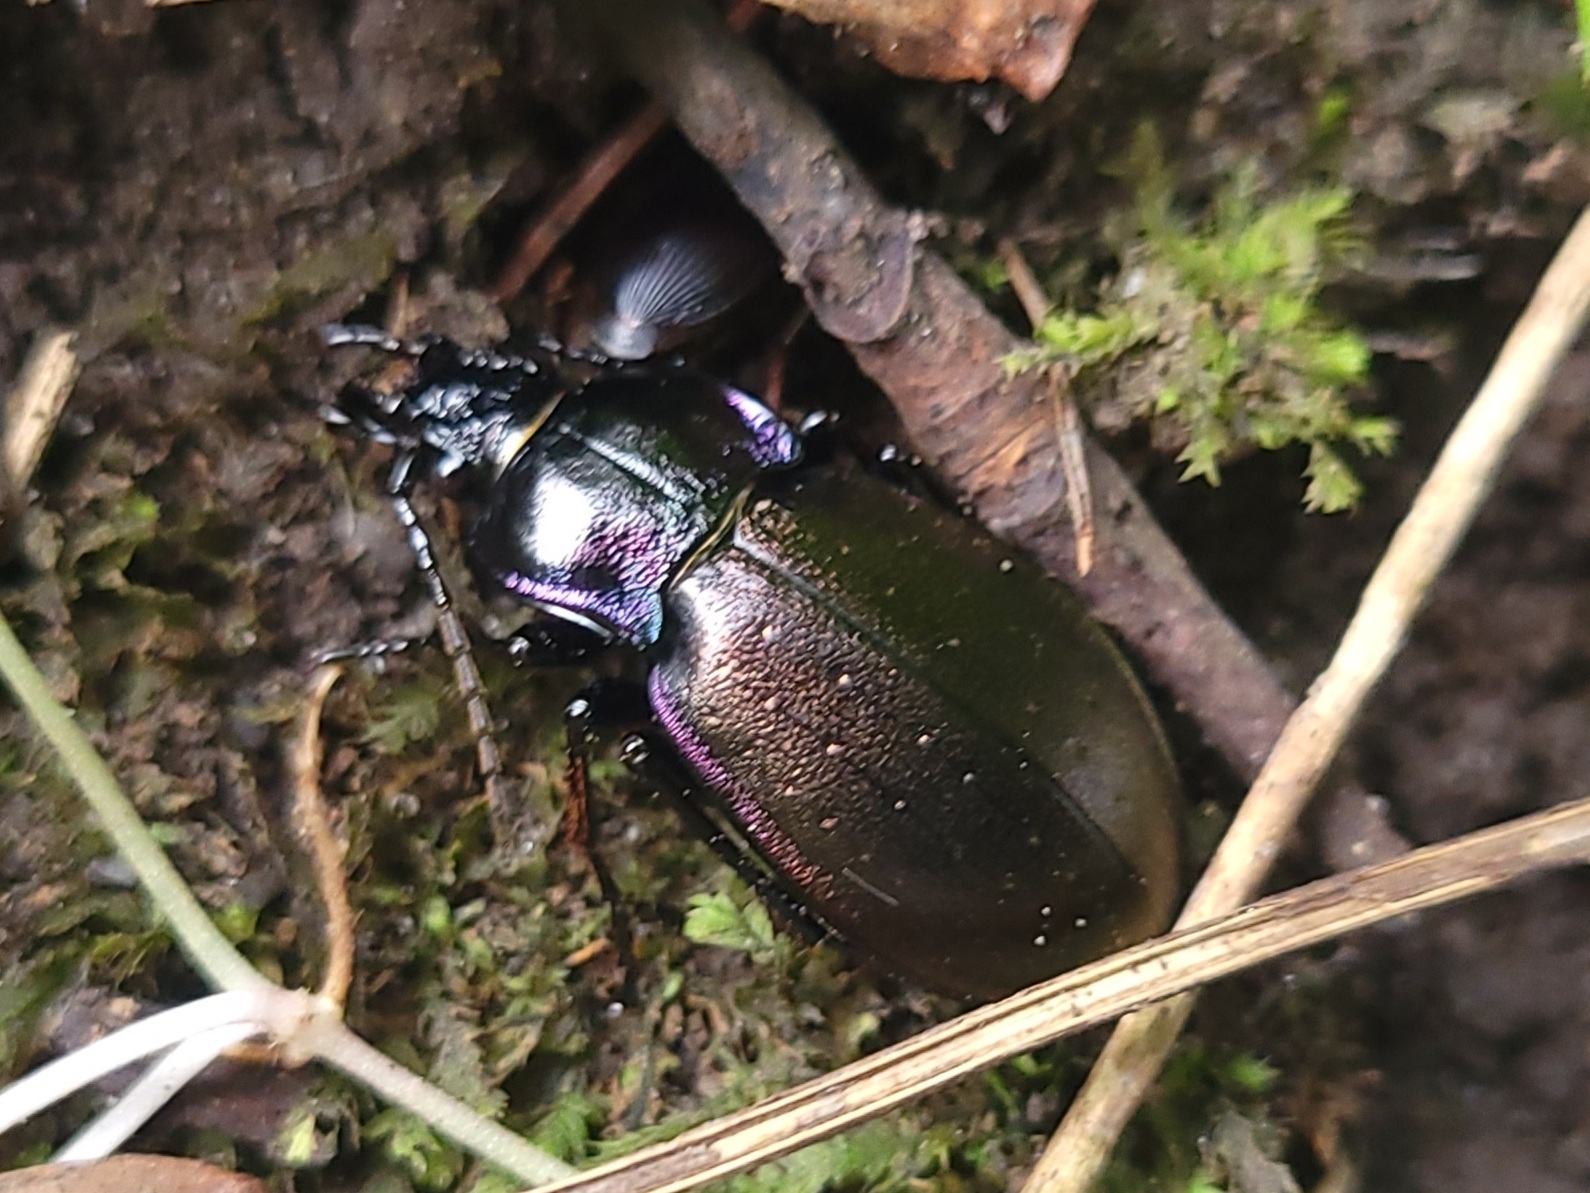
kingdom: Animalia
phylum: Arthropoda
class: Insecta
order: Coleoptera
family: Carabidae
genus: Carabus
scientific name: Carabus nemoralis
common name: European ground beetle
